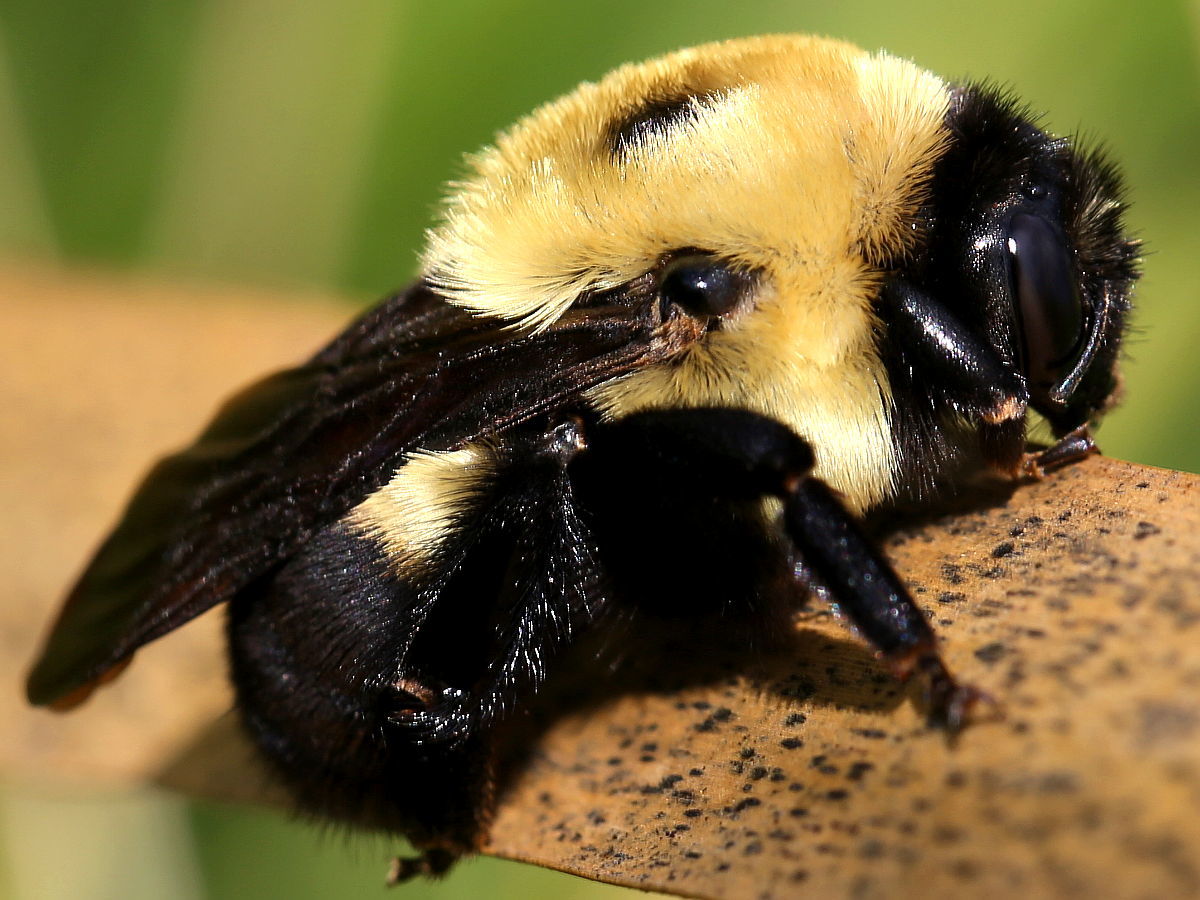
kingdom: Animalia
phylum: Arthropoda
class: Insecta
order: Hymenoptera
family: Apidae
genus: Bombus
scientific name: Bombus griseocollis
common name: Brown-belted bumble bee
